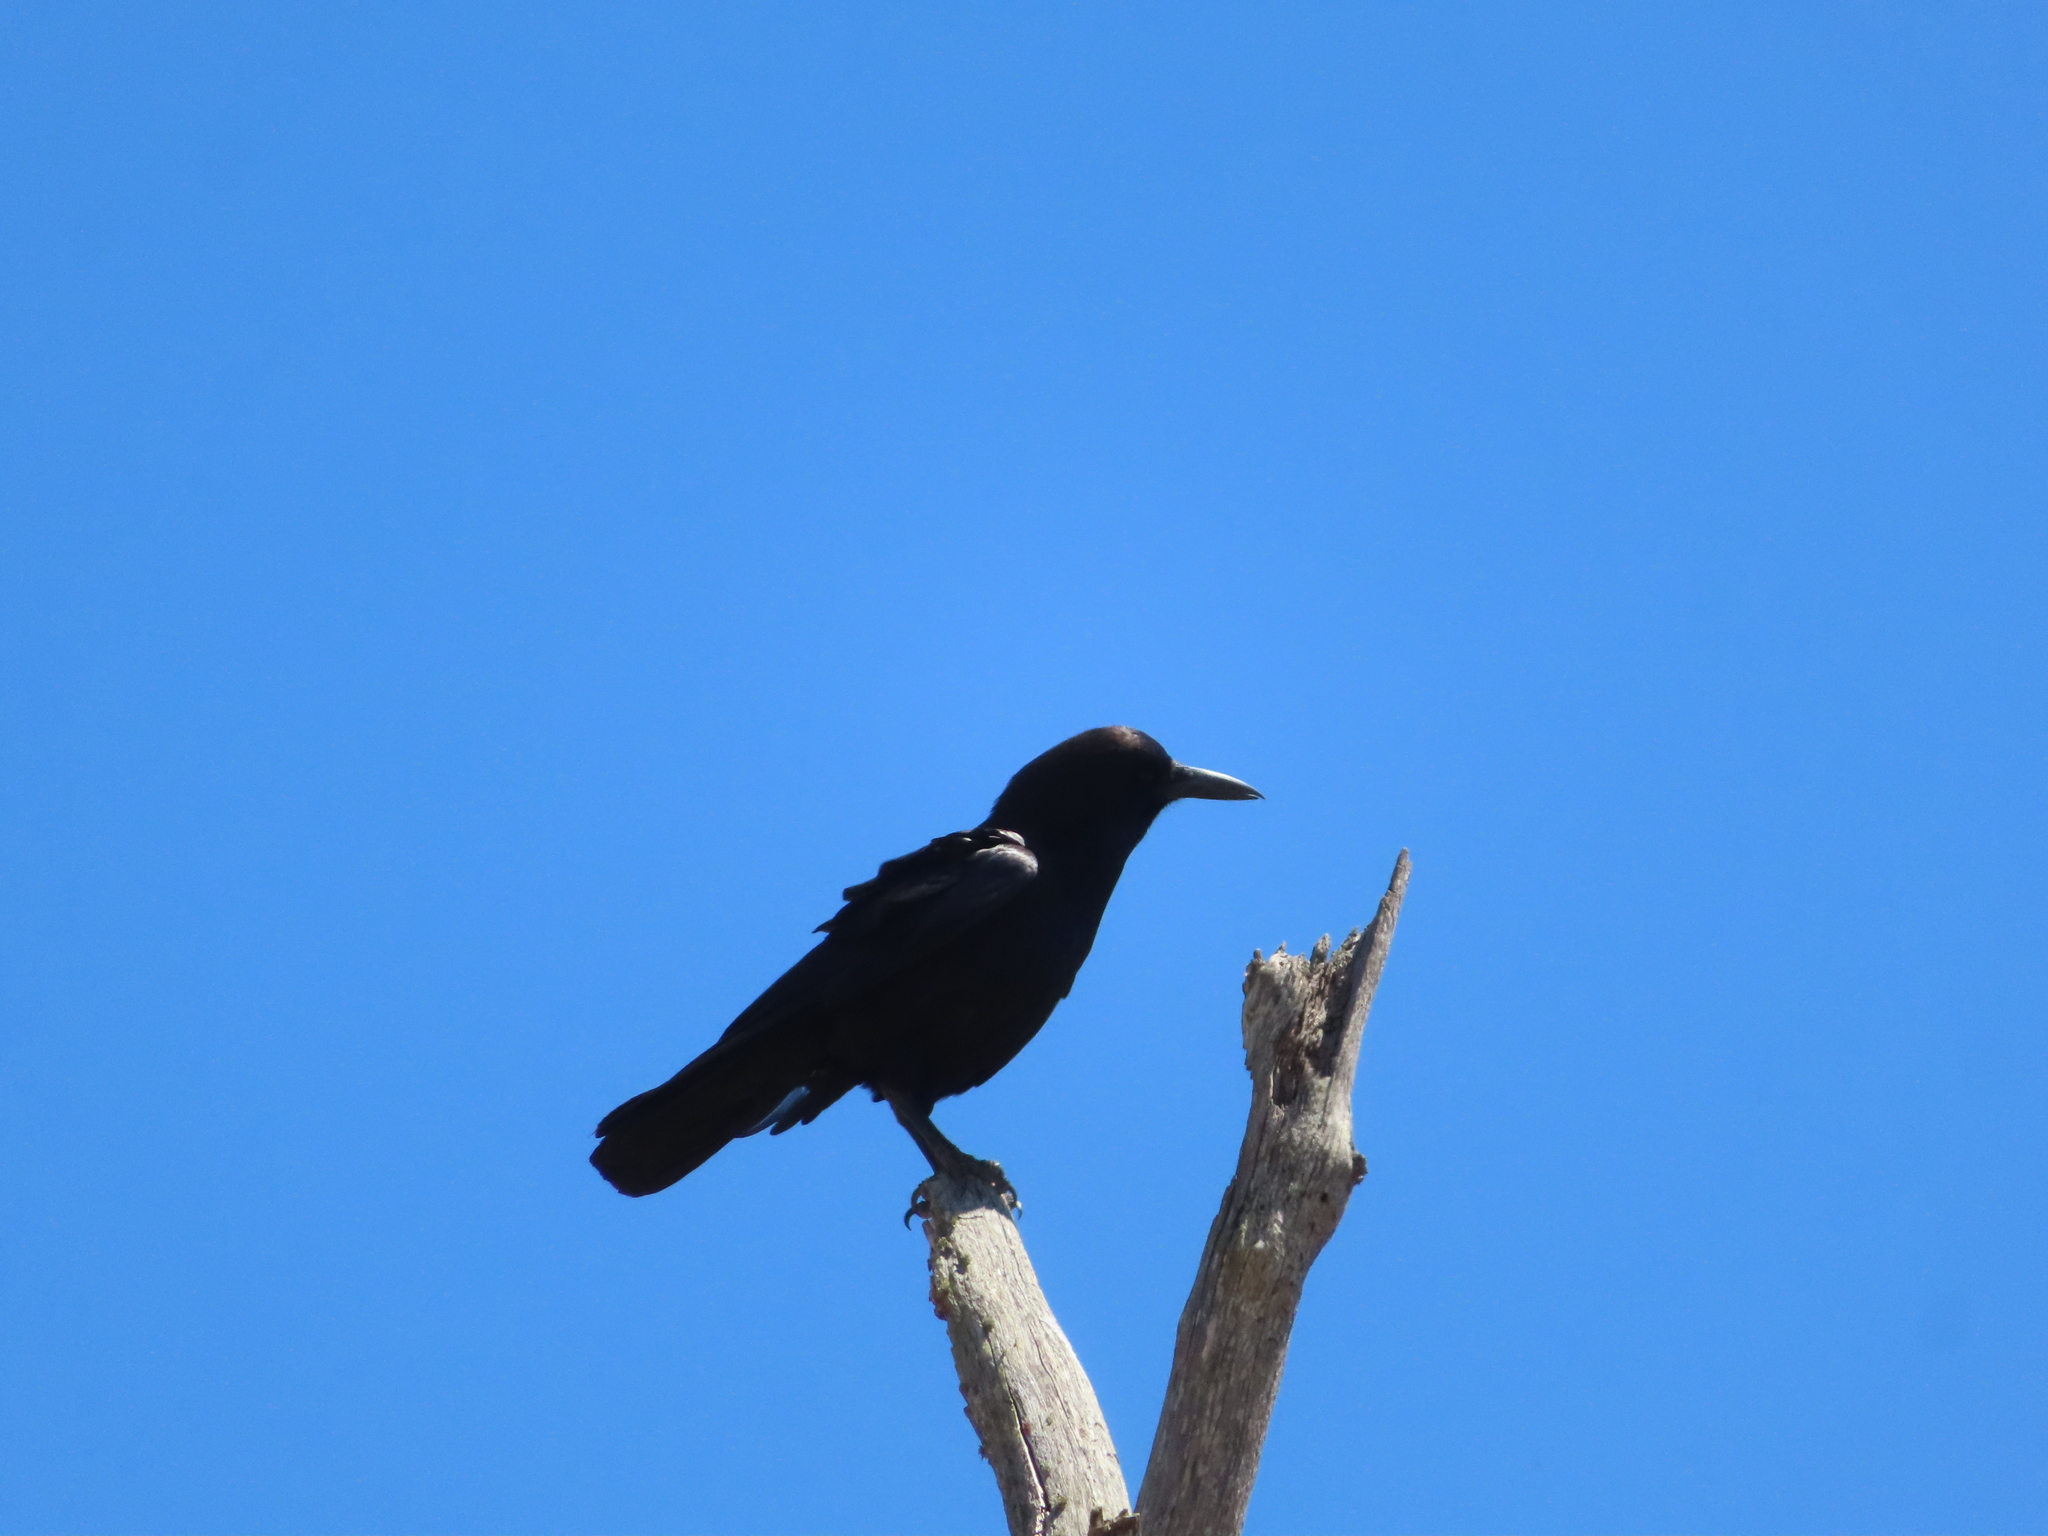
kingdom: Animalia
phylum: Chordata
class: Aves
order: Passeriformes
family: Corvidae
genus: Corvus
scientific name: Corvus capensis
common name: Cape crow
